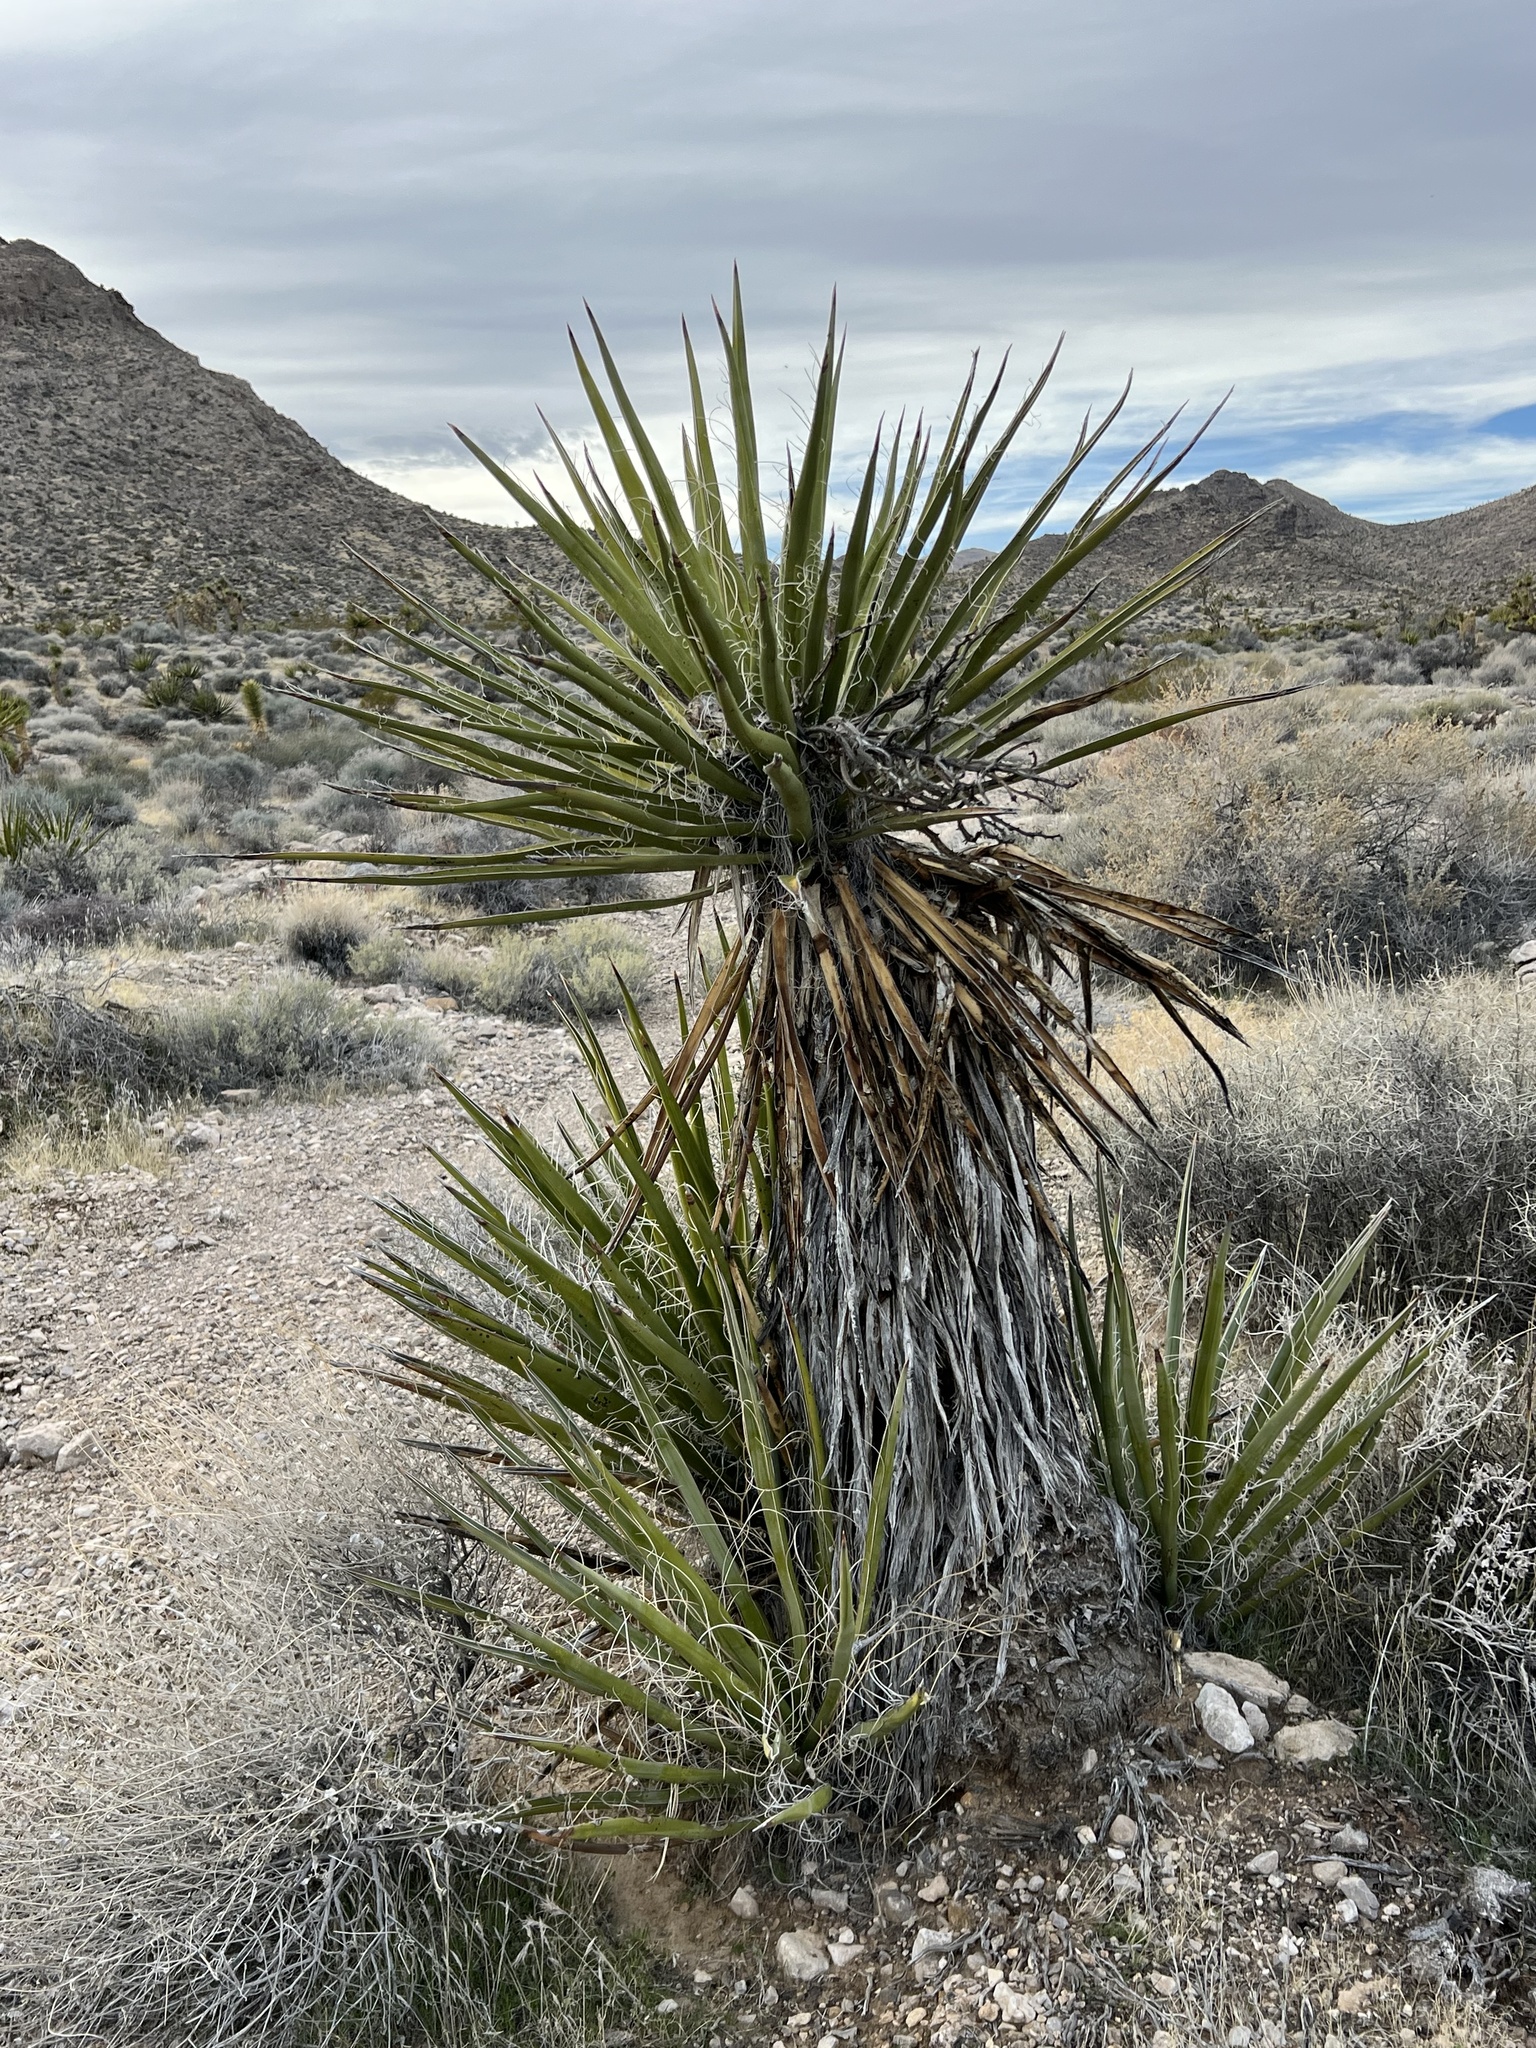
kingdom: Plantae
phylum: Tracheophyta
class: Liliopsida
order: Asparagales
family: Asparagaceae
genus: Yucca
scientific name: Yucca schidigera
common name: Mojave yucca
